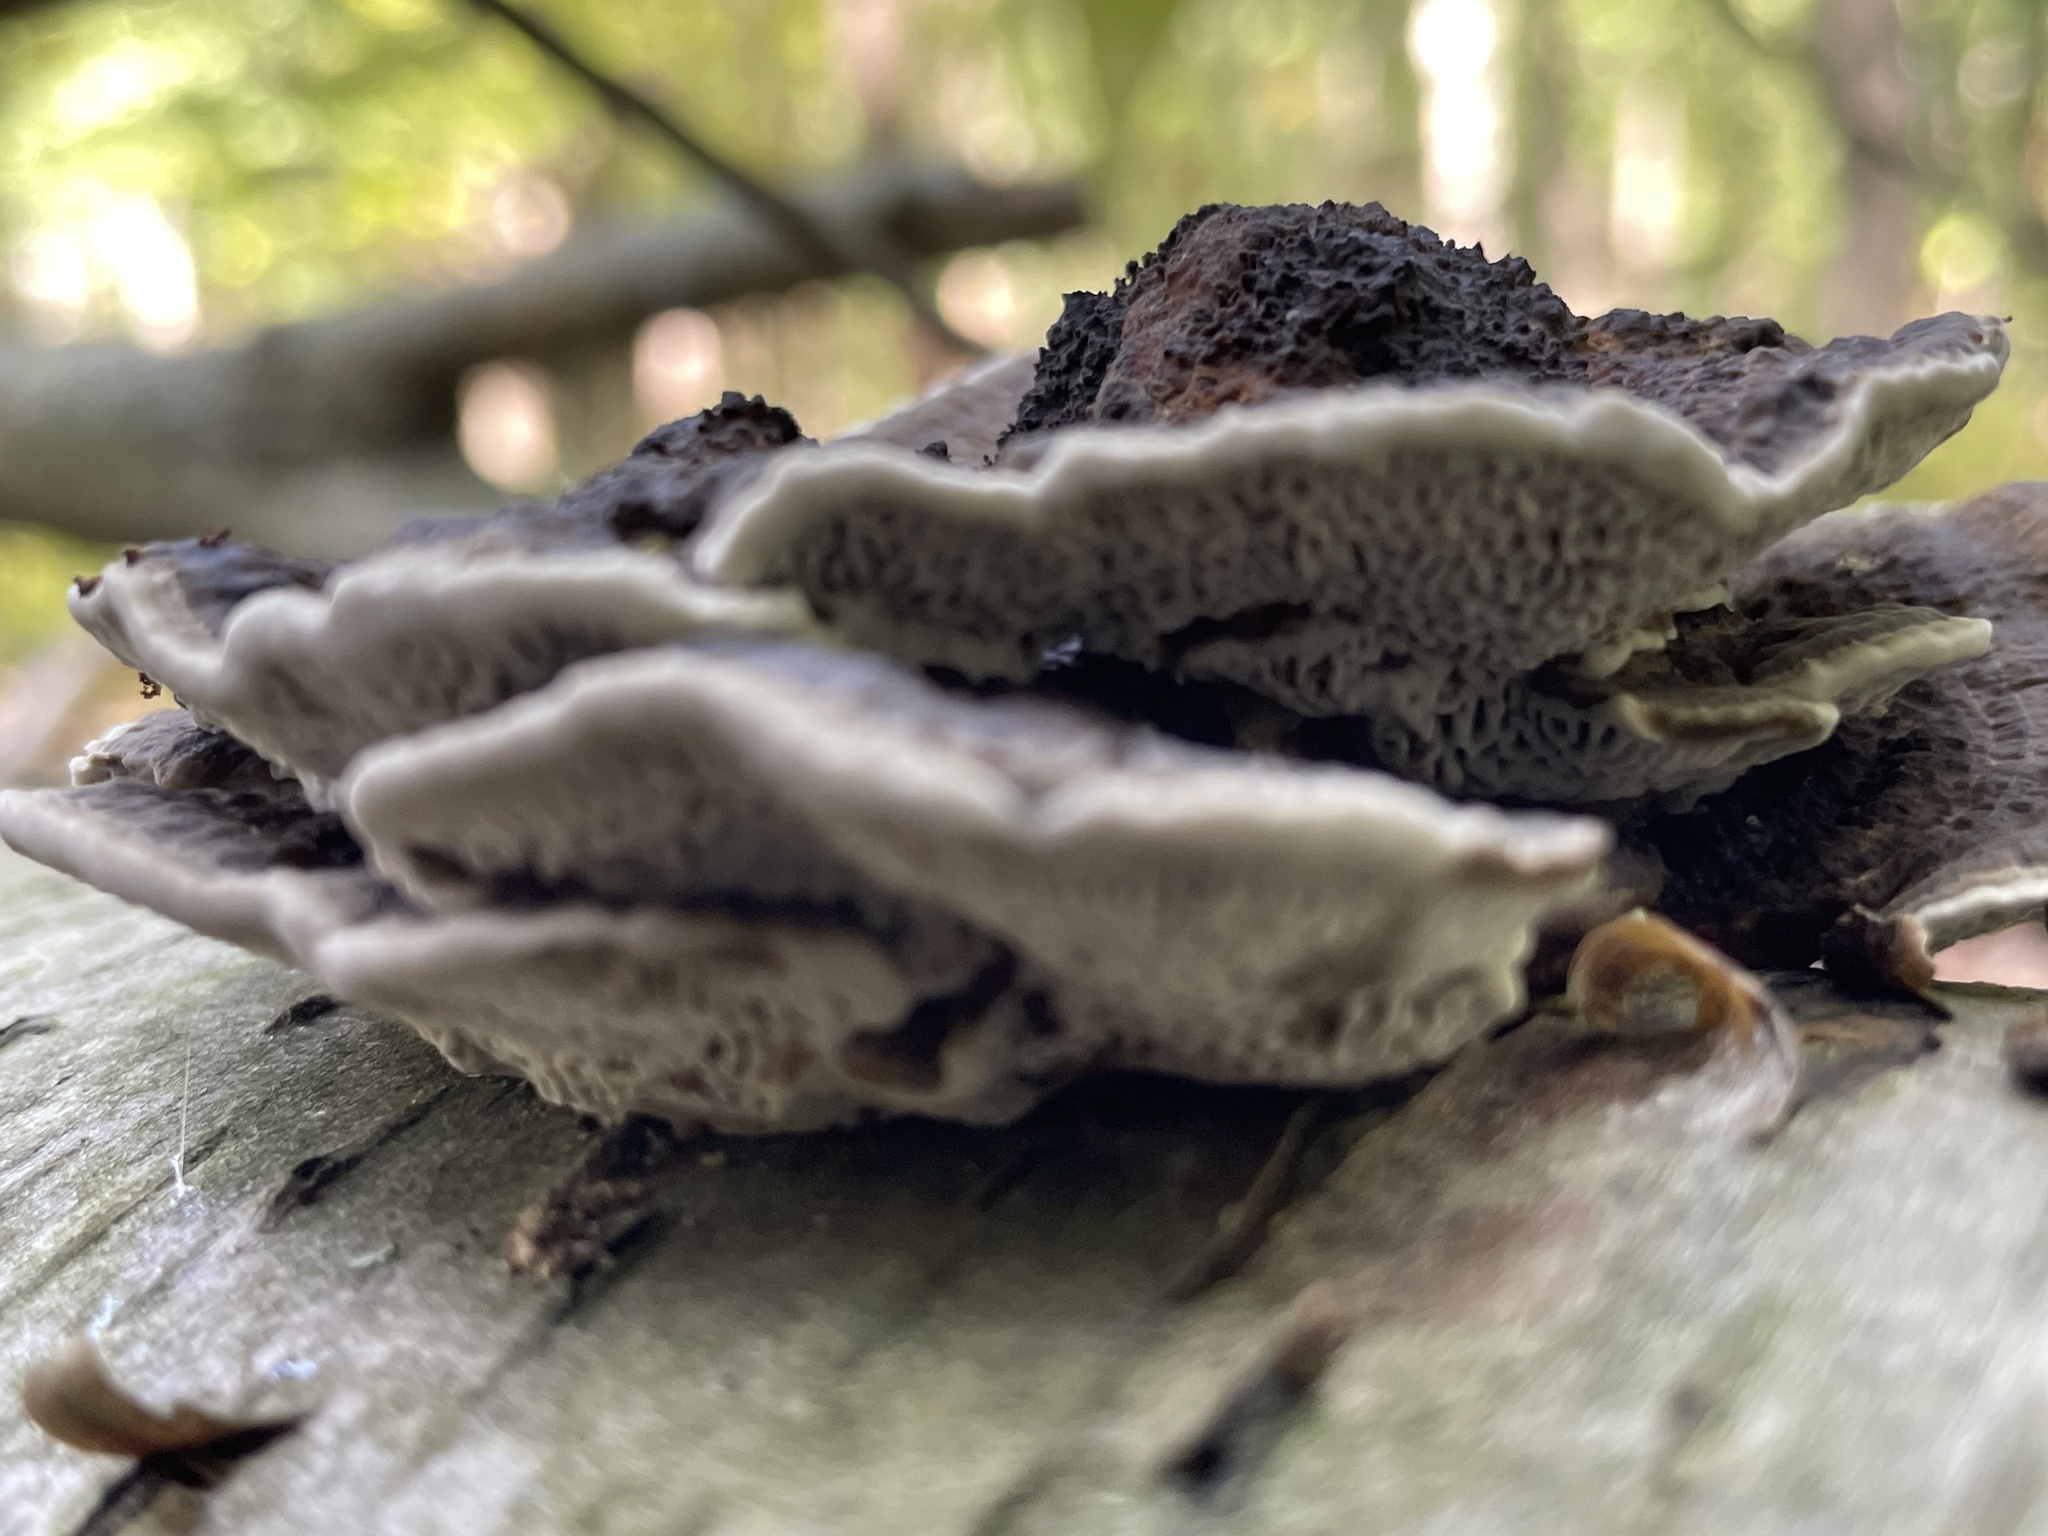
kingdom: Fungi
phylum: Basidiomycota
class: Agaricomycetes
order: Polyporales
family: Polyporaceae
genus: Daedaleopsis
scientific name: Daedaleopsis confragosa
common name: Blushing bracket
